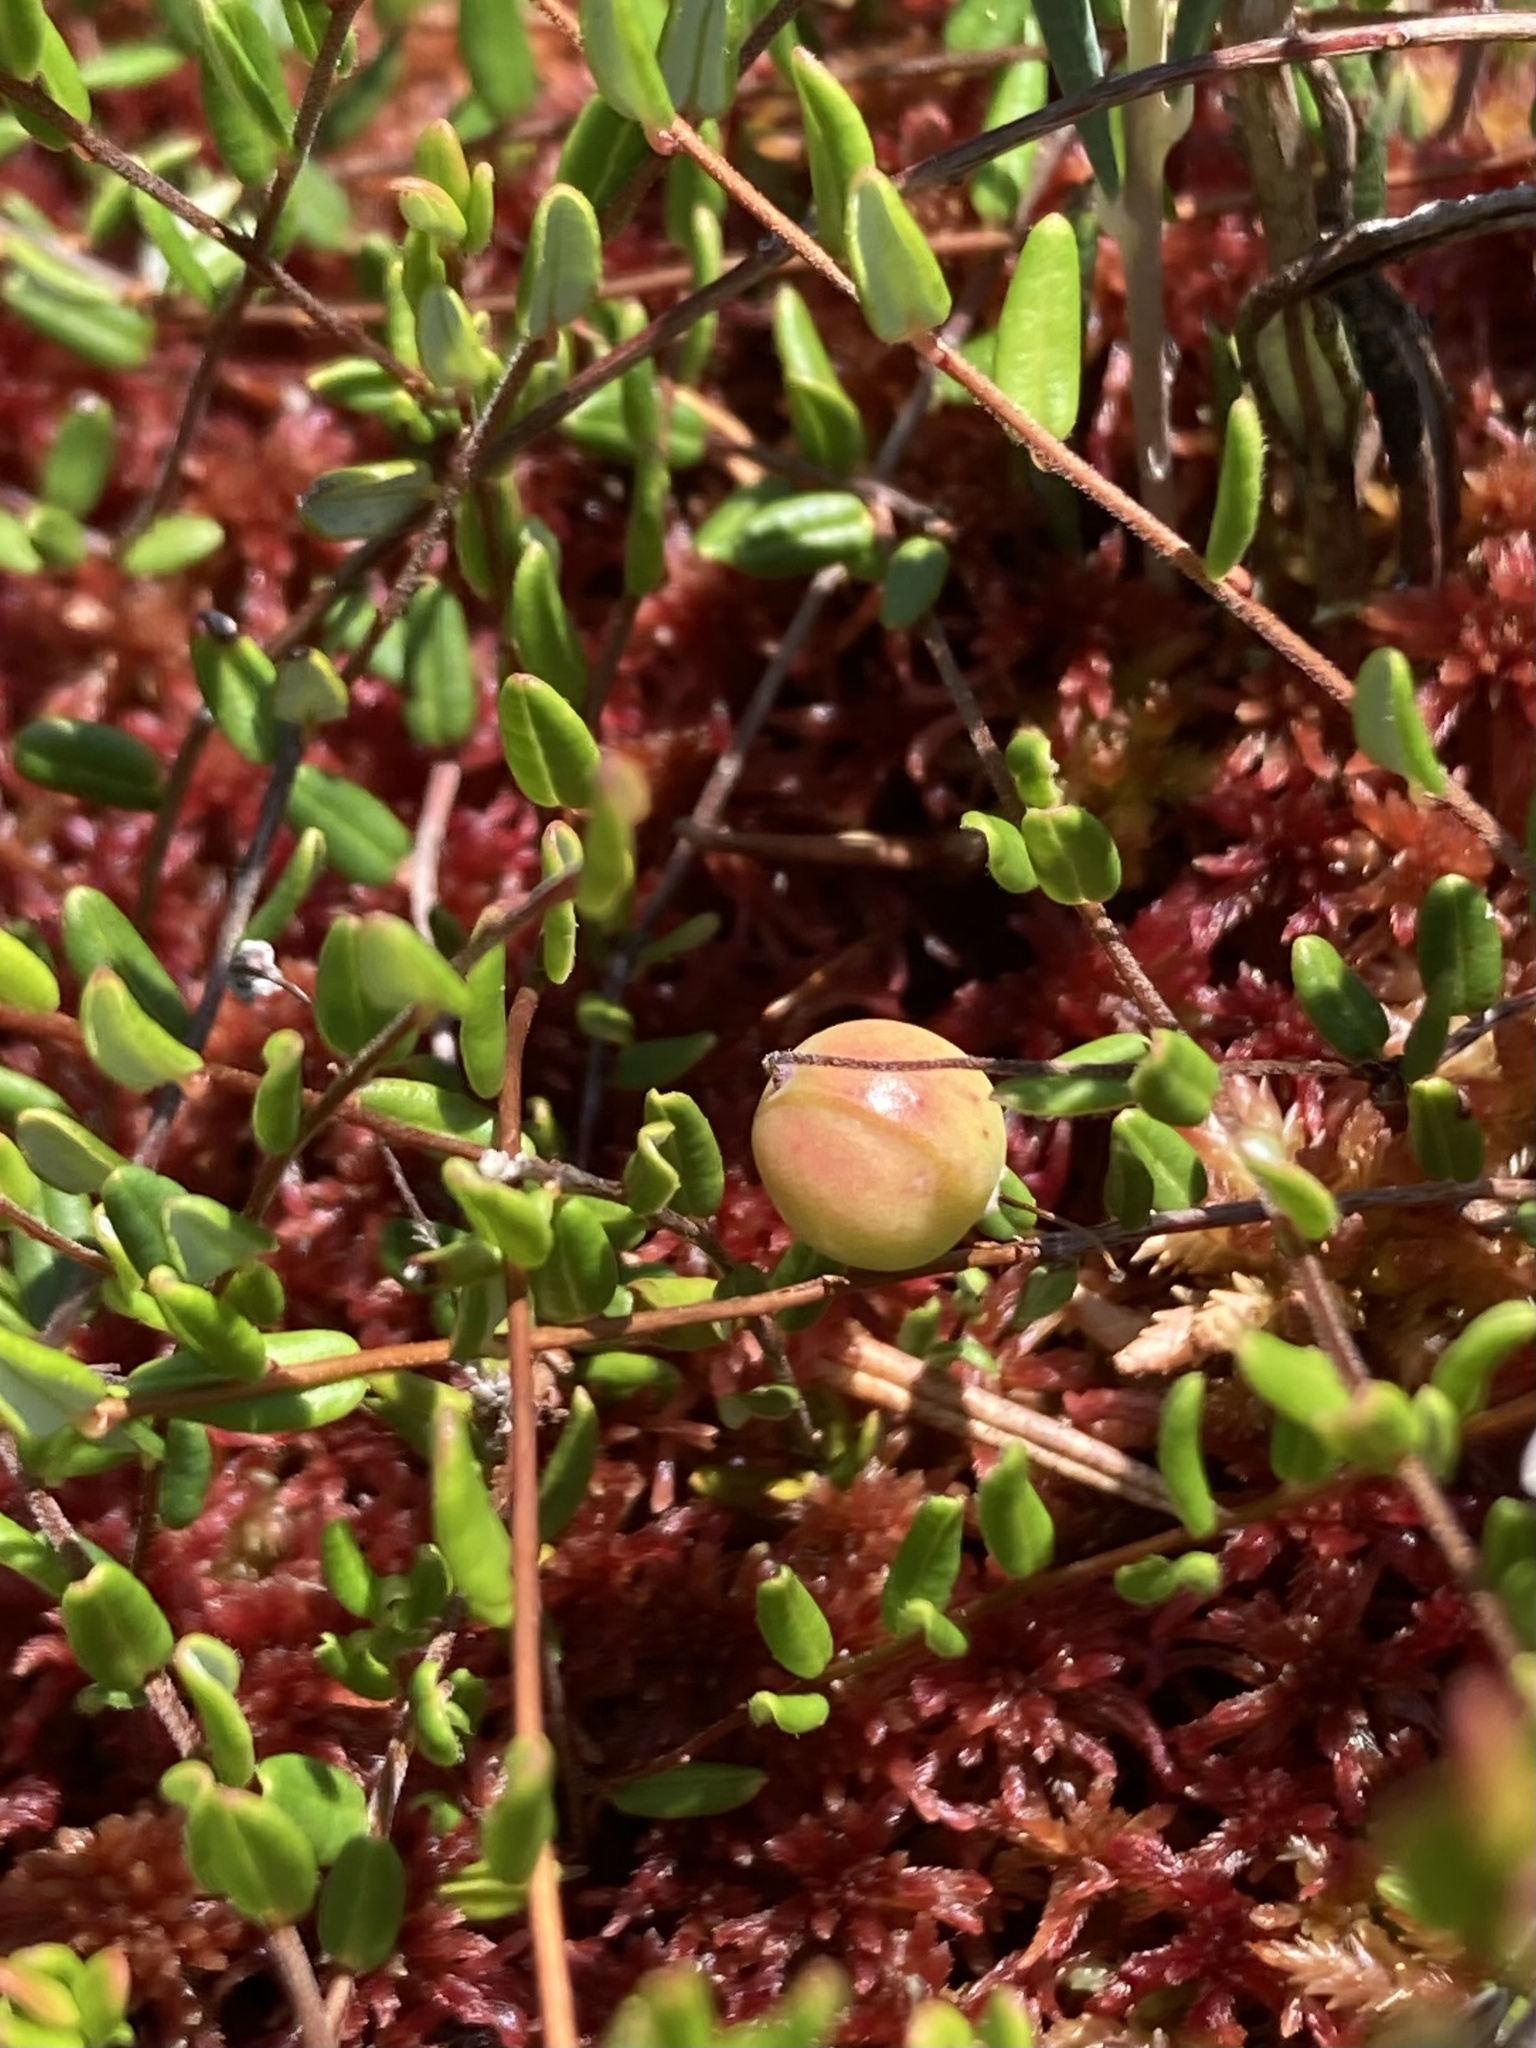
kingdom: Plantae
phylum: Tracheophyta
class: Magnoliopsida
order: Ericales
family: Ericaceae
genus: Vaccinium
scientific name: Vaccinium oxycoccos
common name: Cranberry
